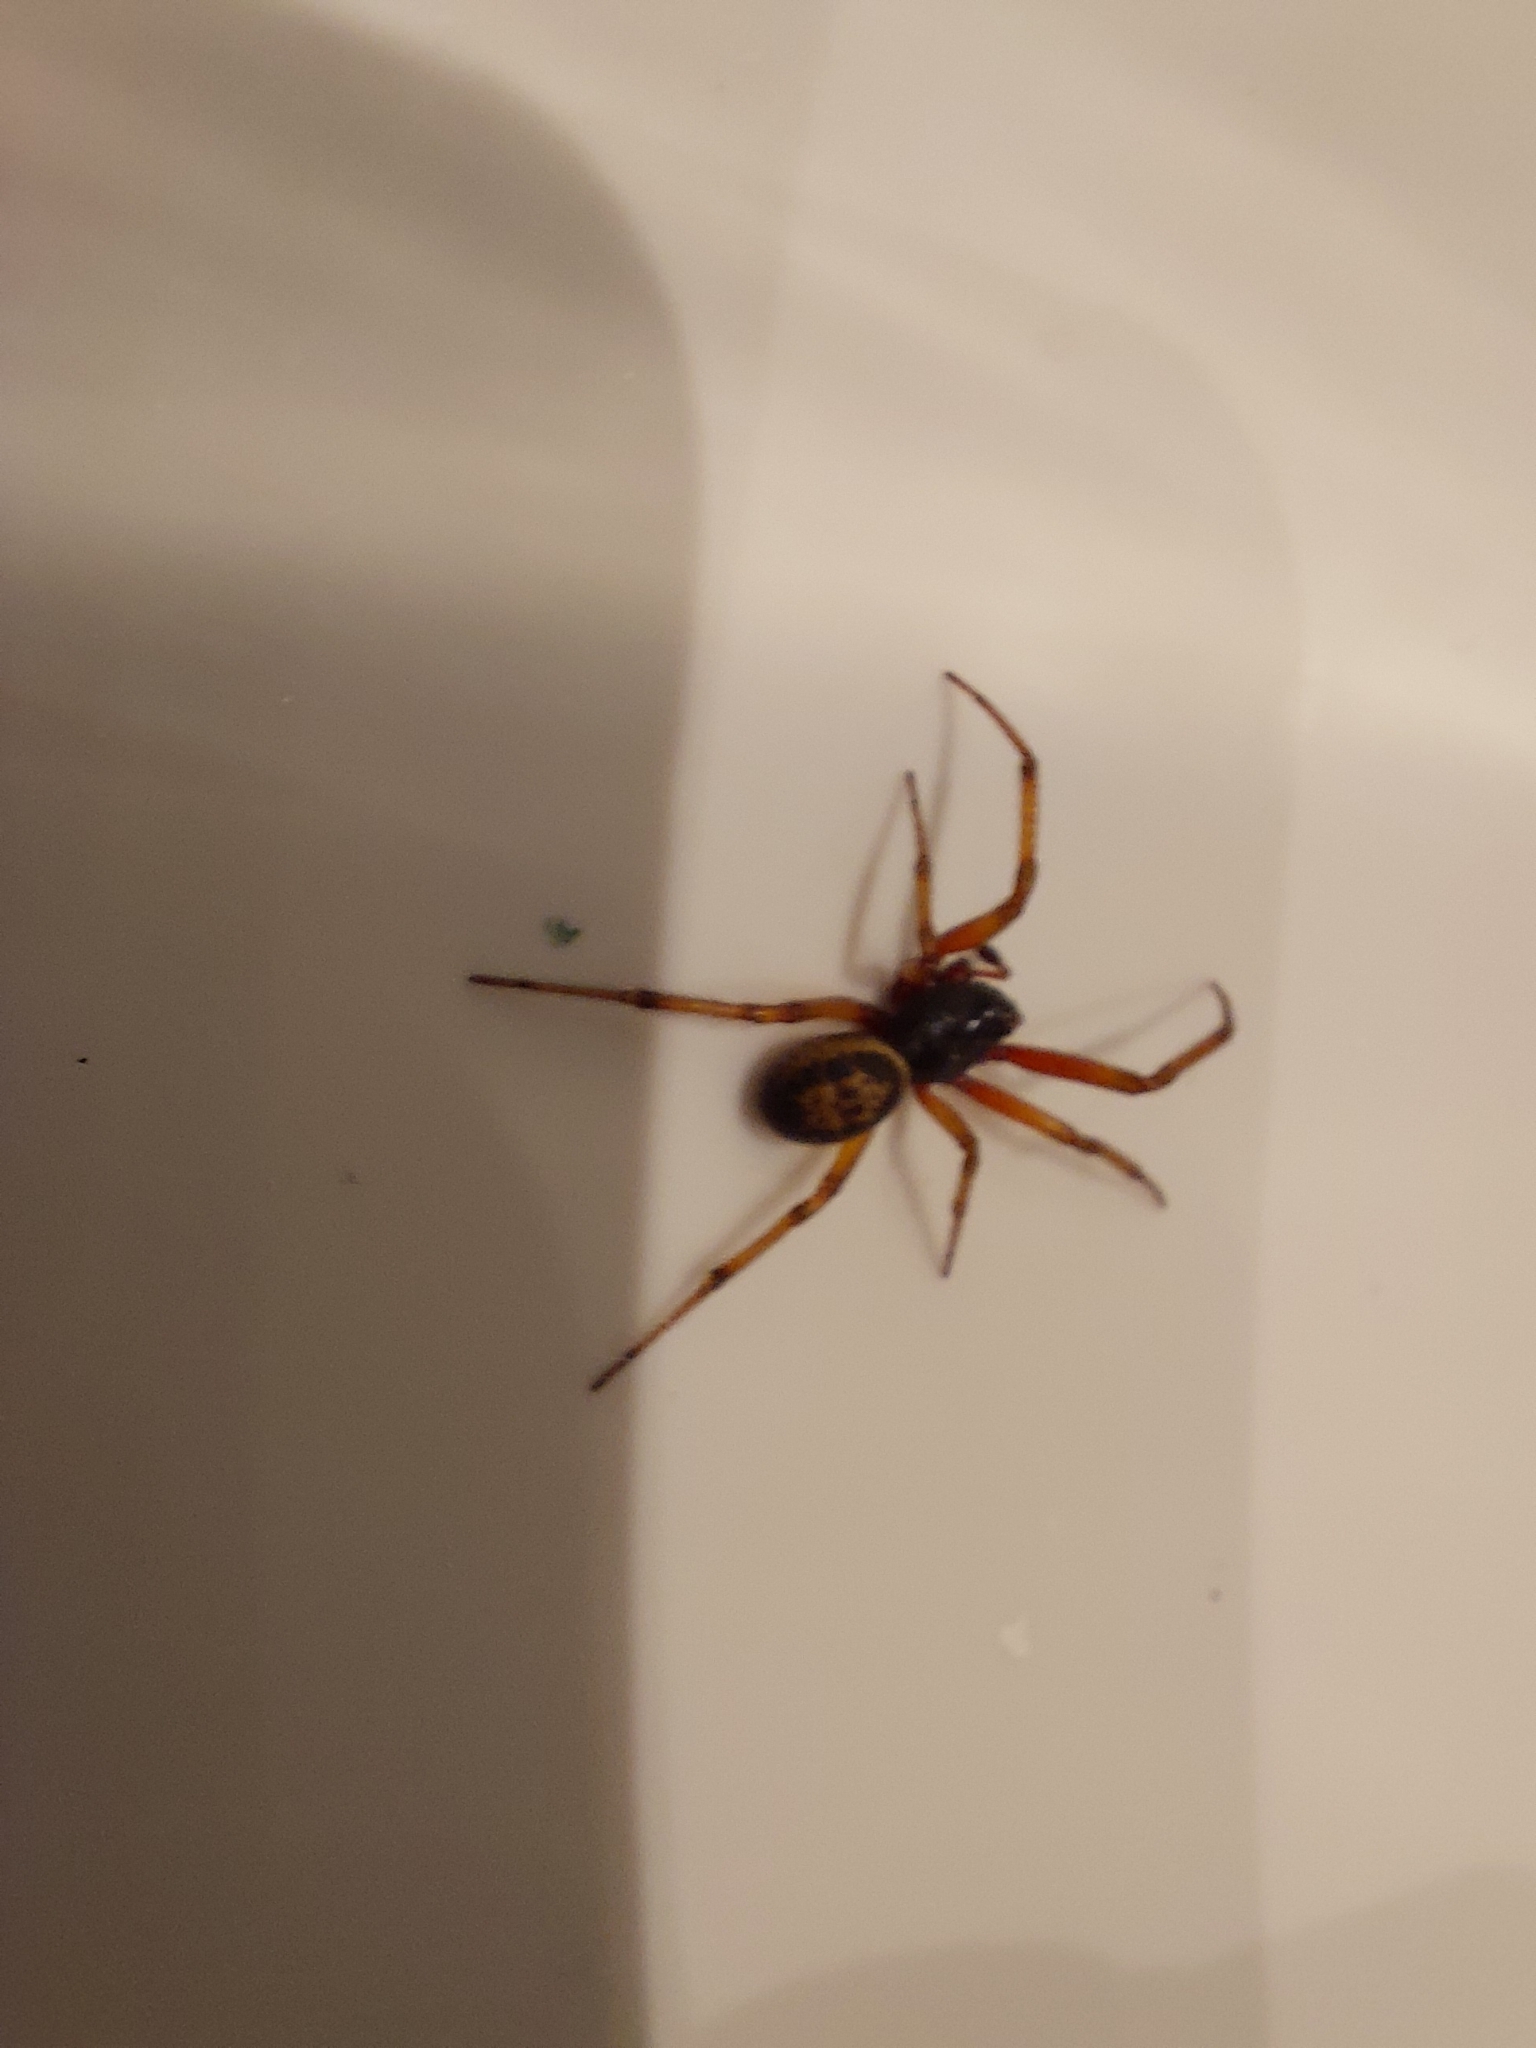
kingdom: Animalia
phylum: Arthropoda
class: Arachnida
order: Araneae
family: Theridiidae
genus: Steatoda
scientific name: Steatoda nobilis
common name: Cobweb weaver
